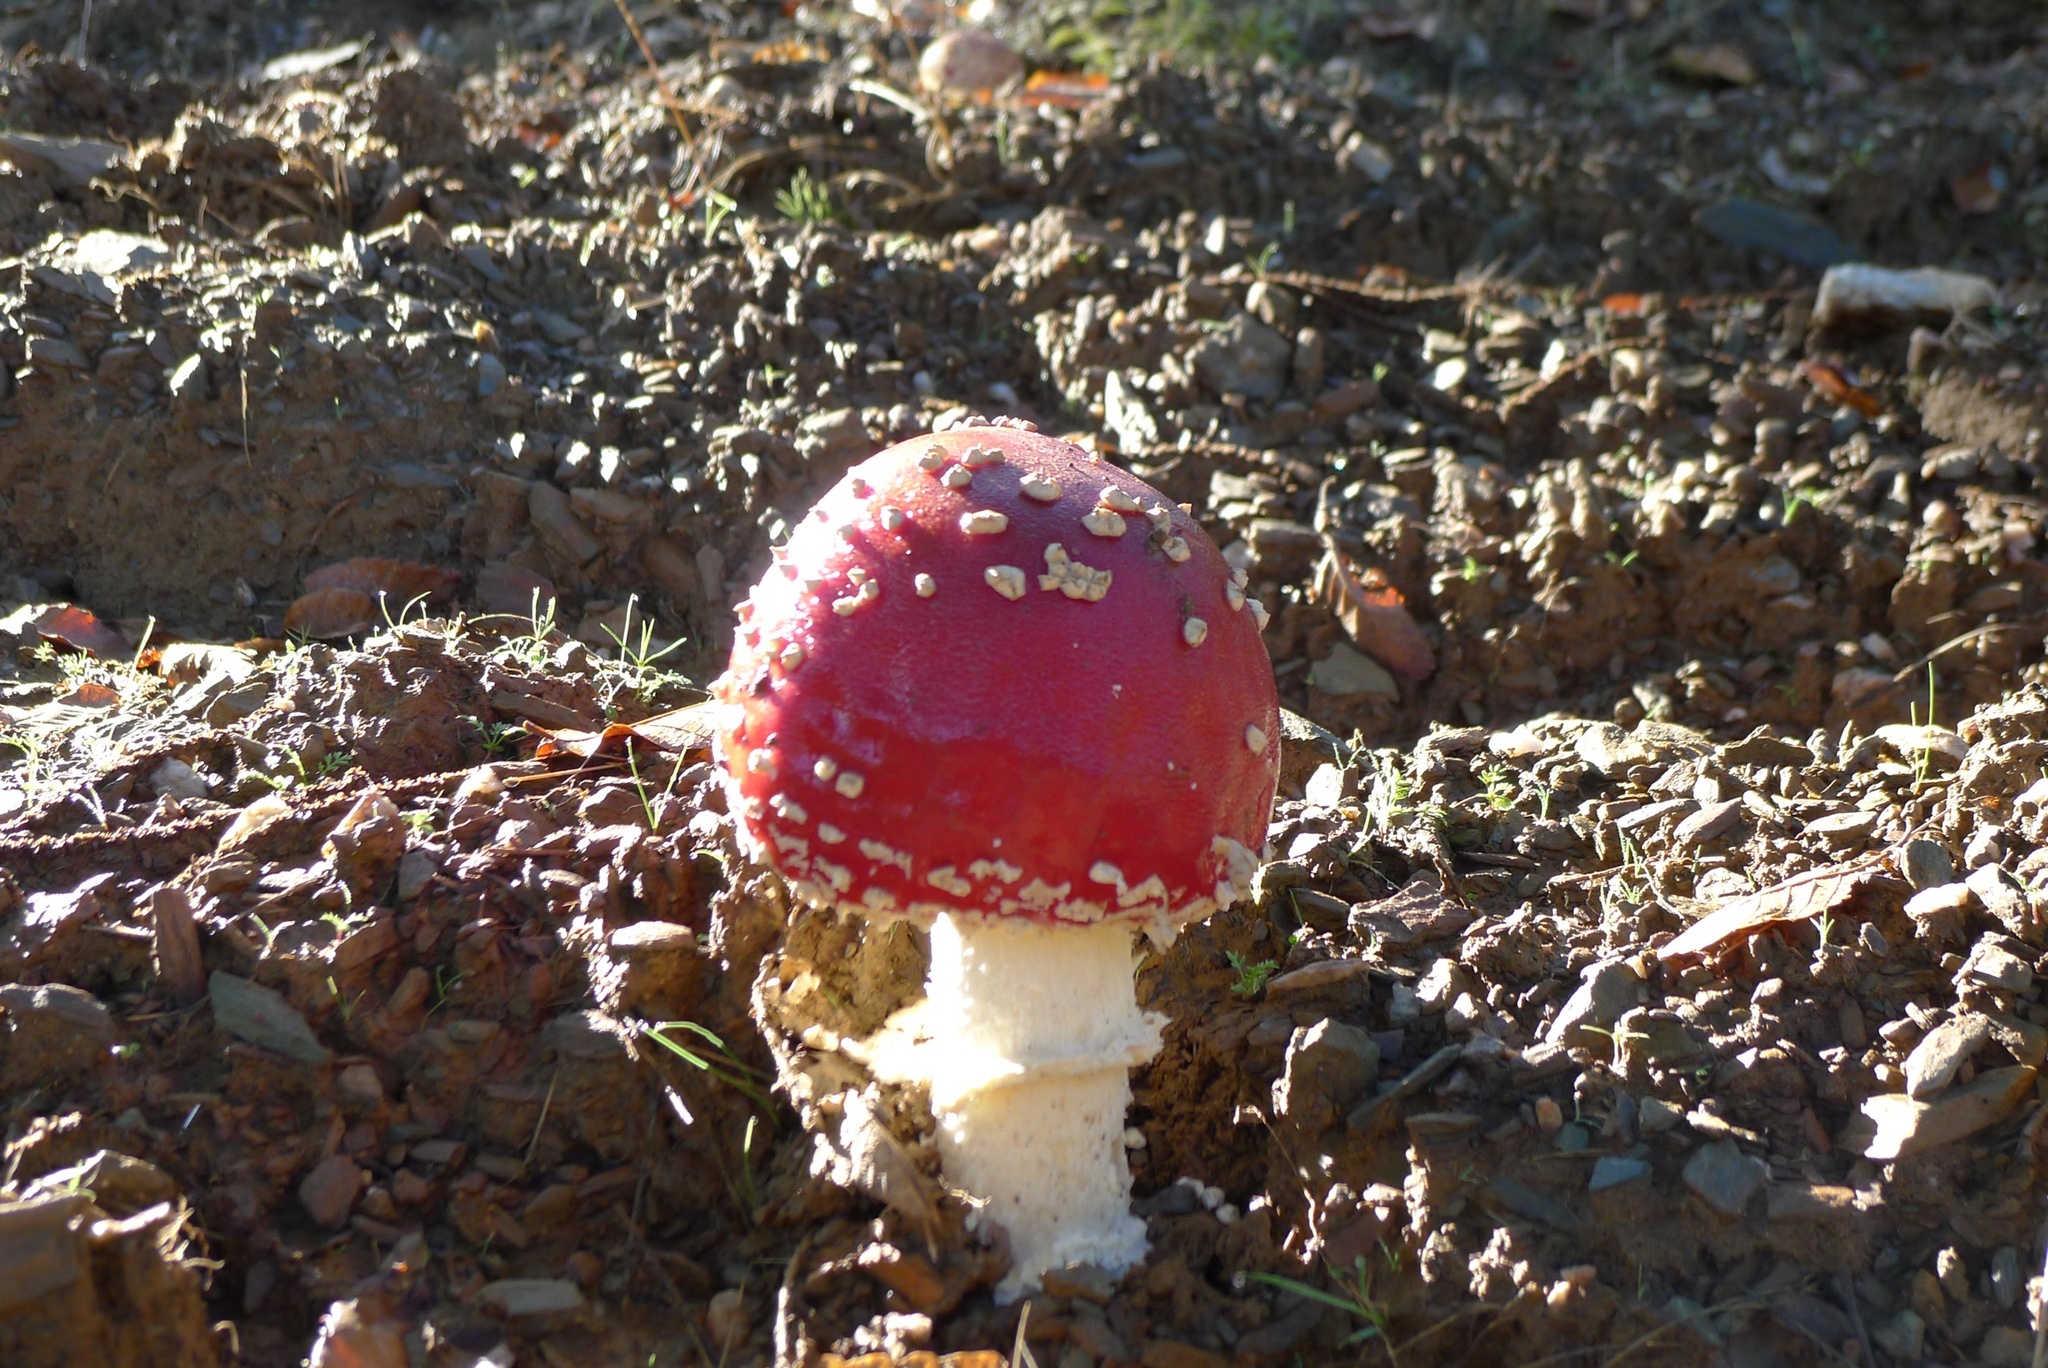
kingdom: Fungi
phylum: Basidiomycota
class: Agaricomycetes
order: Agaricales
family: Amanitaceae
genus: Amanita
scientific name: Amanita muscaria
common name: Fly agaric
